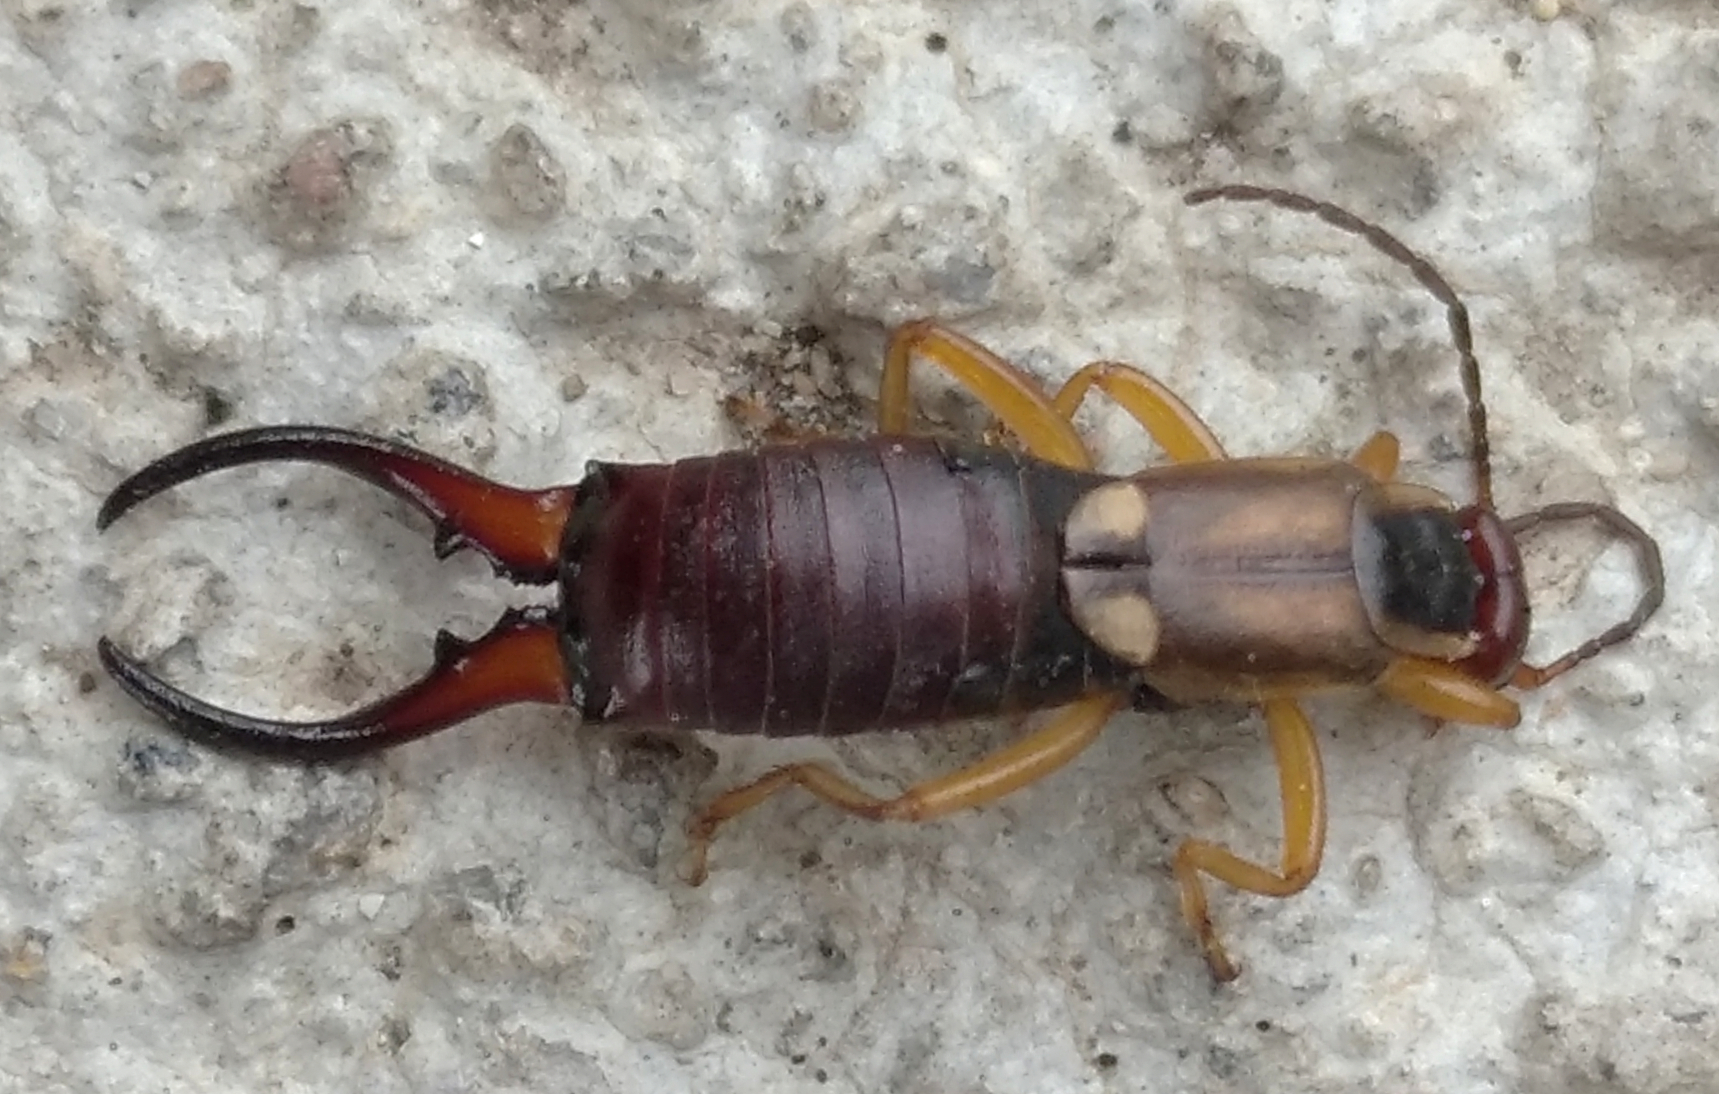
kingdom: Animalia
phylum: Arthropoda
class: Insecta
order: Dermaptera
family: Forficulidae
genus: Forficula
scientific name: Forficula
